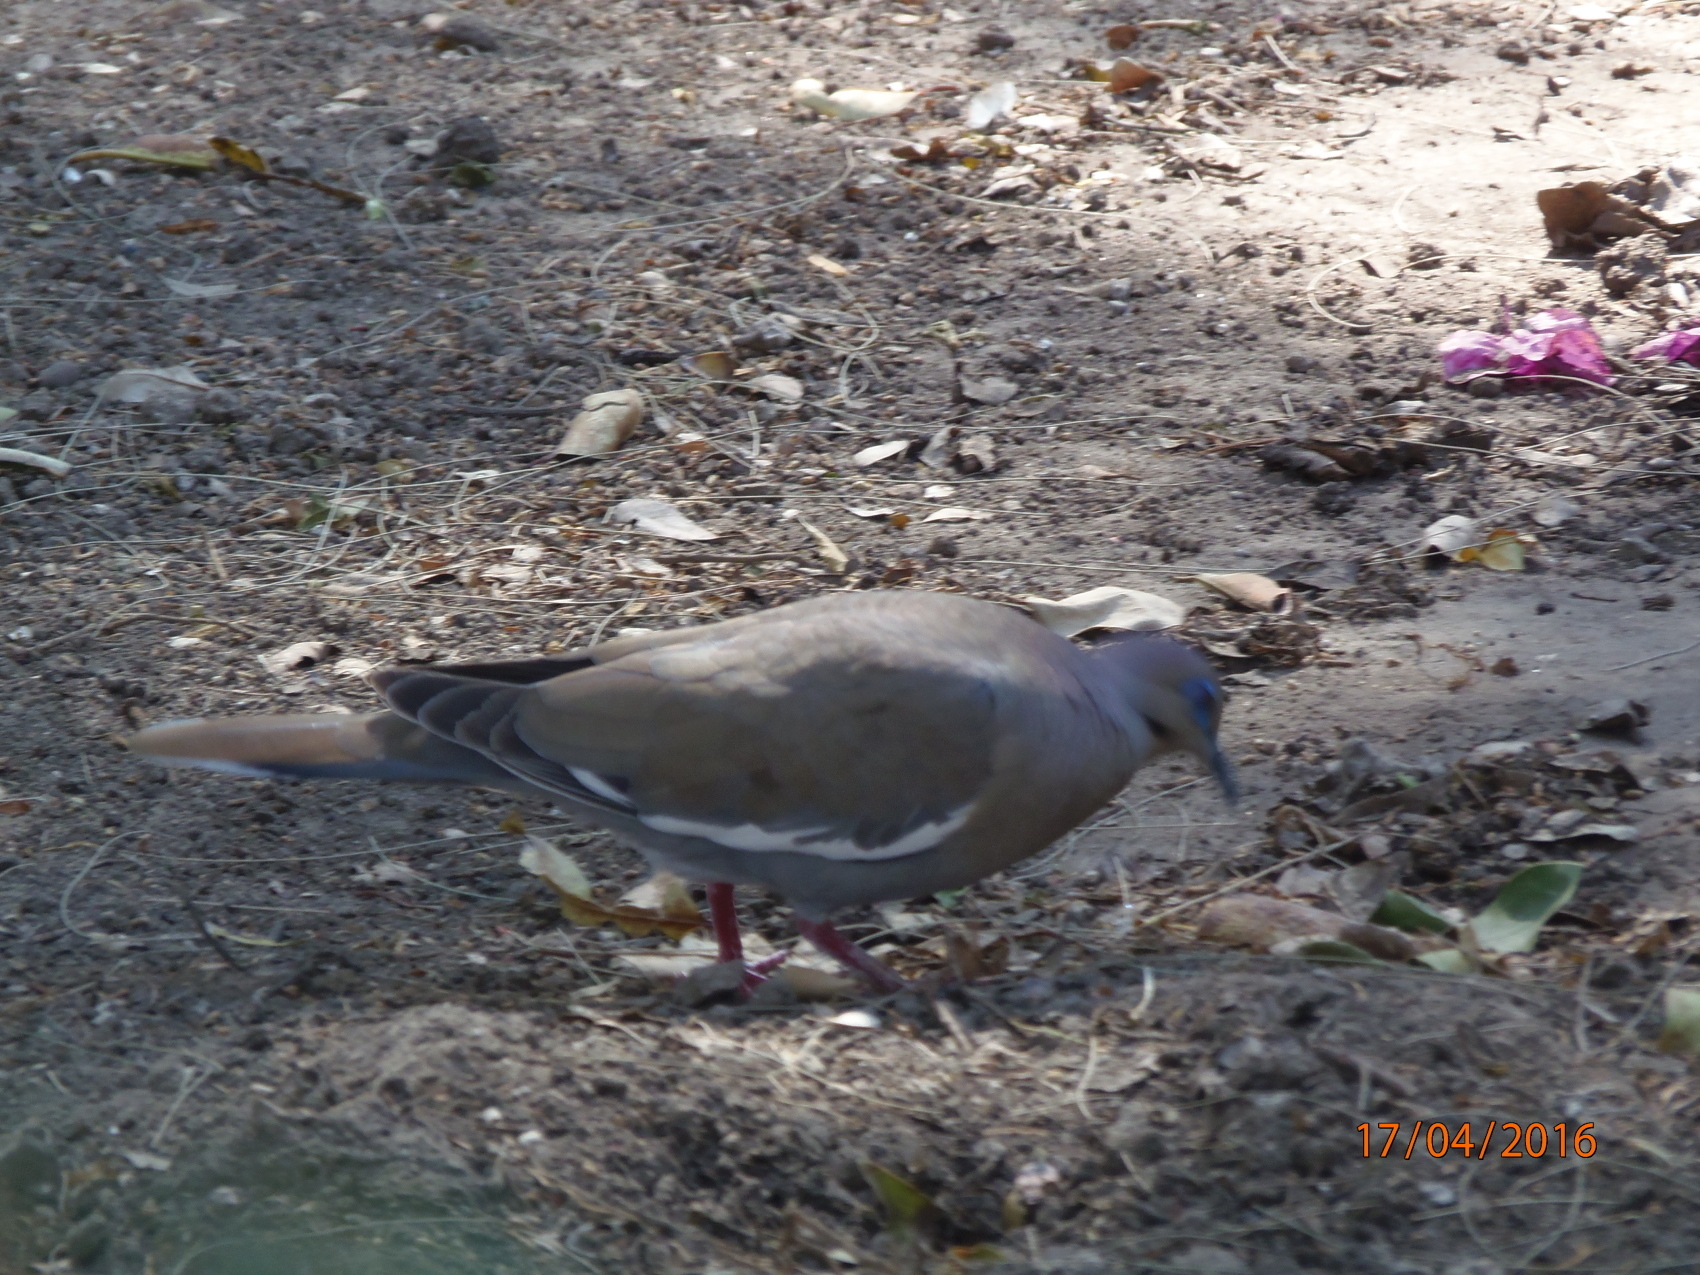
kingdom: Animalia
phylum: Chordata
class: Aves
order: Columbiformes
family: Columbidae
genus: Zenaida
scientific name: Zenaida asiatica
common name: White-winged dove
